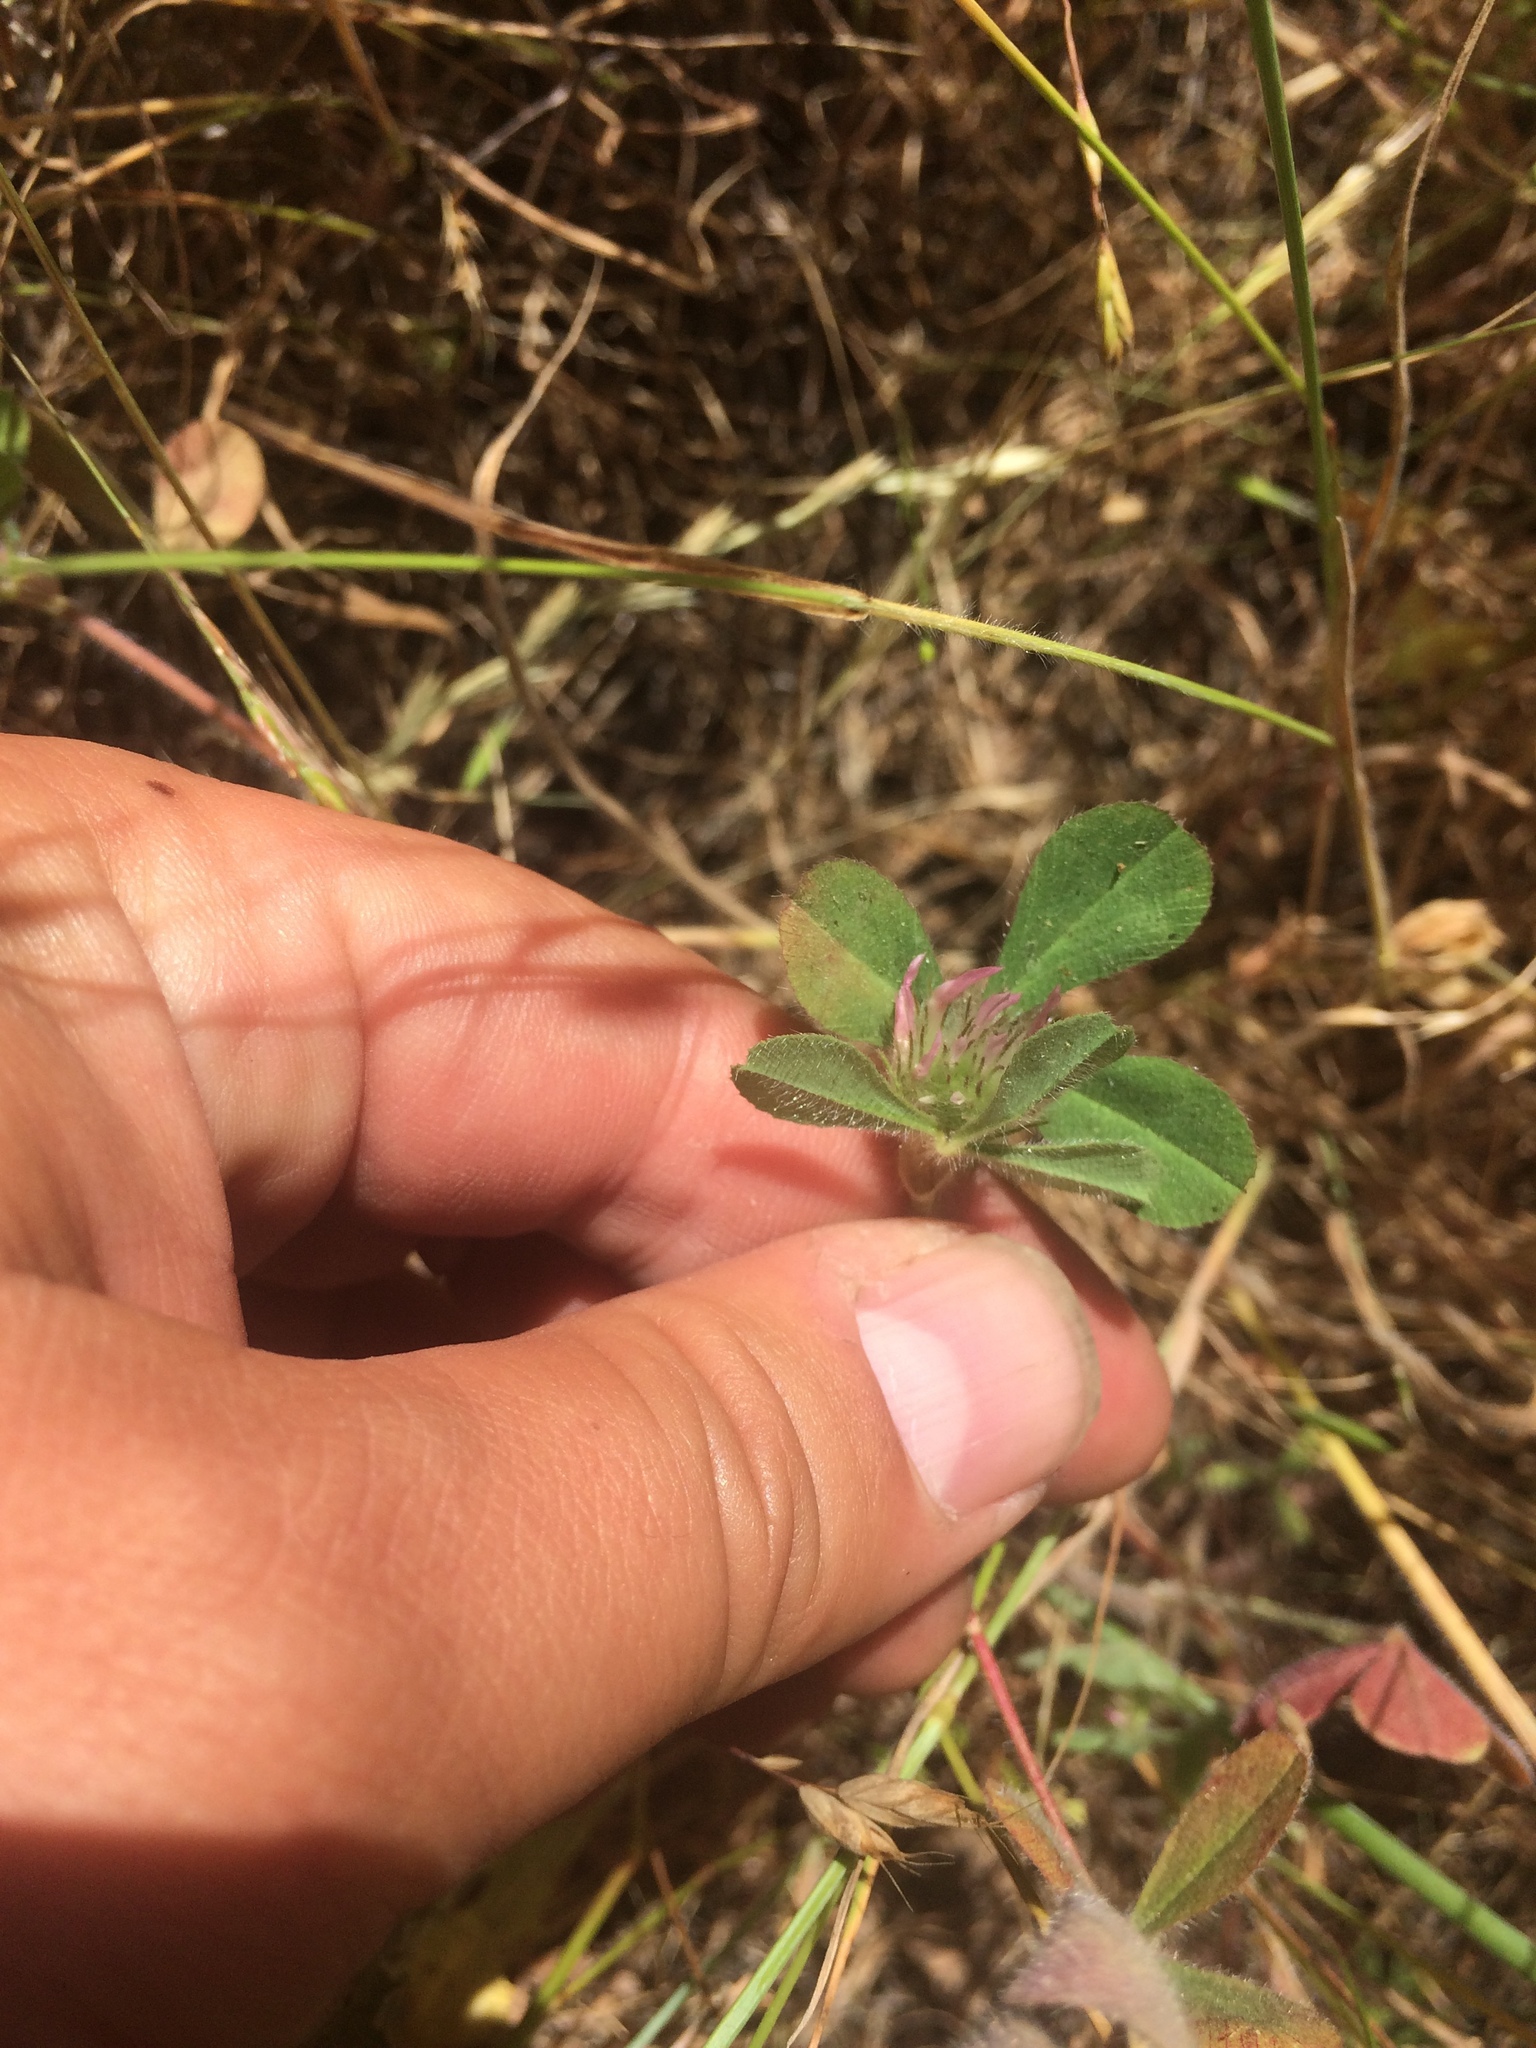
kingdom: Plantae
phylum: Tracheophyta
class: Magnoliopsida
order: Fabales
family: Fabaceae
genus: Trifolium
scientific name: Trifolium hirtum
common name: Rose clover
